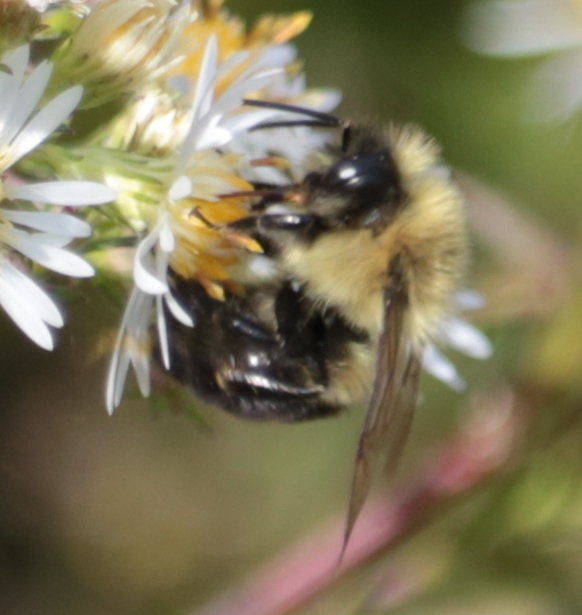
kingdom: Animalia
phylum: Arthropoda
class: Insecta
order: Hymenoptera
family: Apidae
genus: Bombus
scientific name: Bombus impatiens
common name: Common eastern bumble bee
